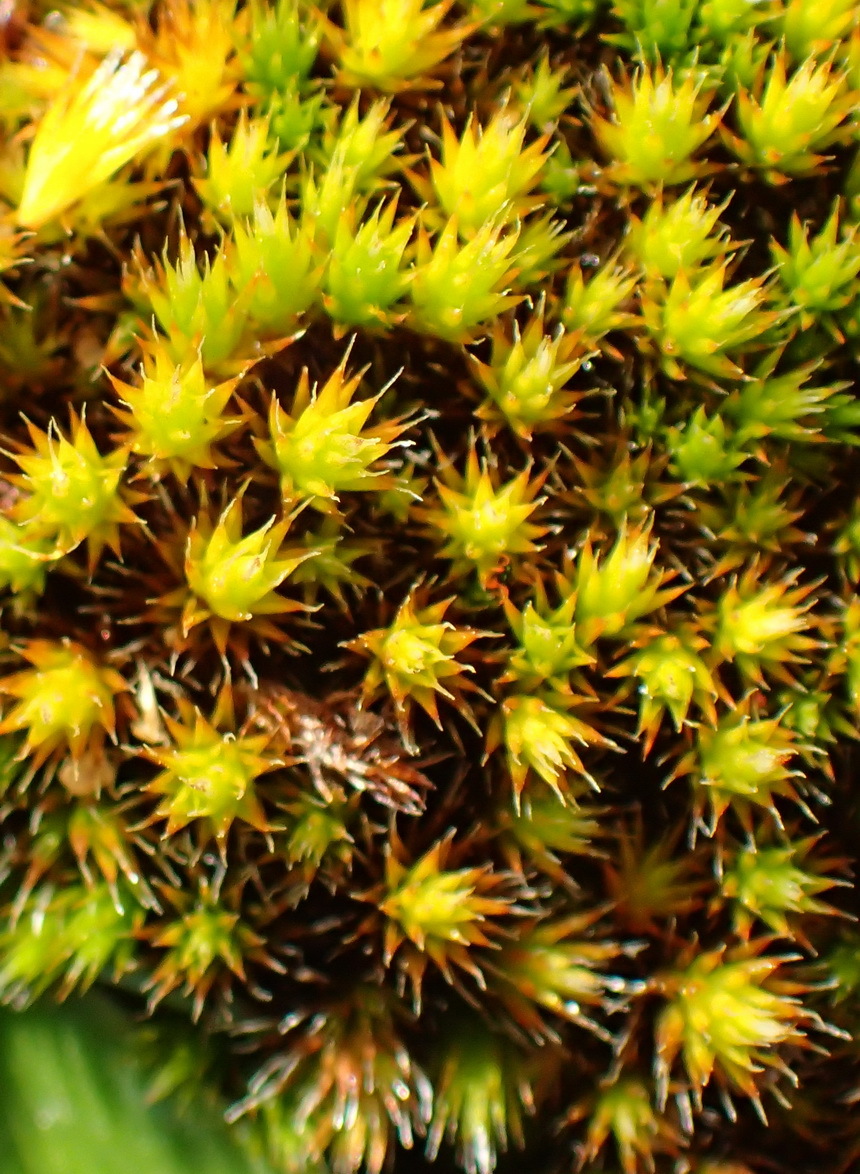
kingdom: Plantae
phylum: Bryophyta
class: Bryopsida
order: Dicranales
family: Leucobryaceae
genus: Campylopus
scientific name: Campylopus pilifer
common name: Campylopus moss
